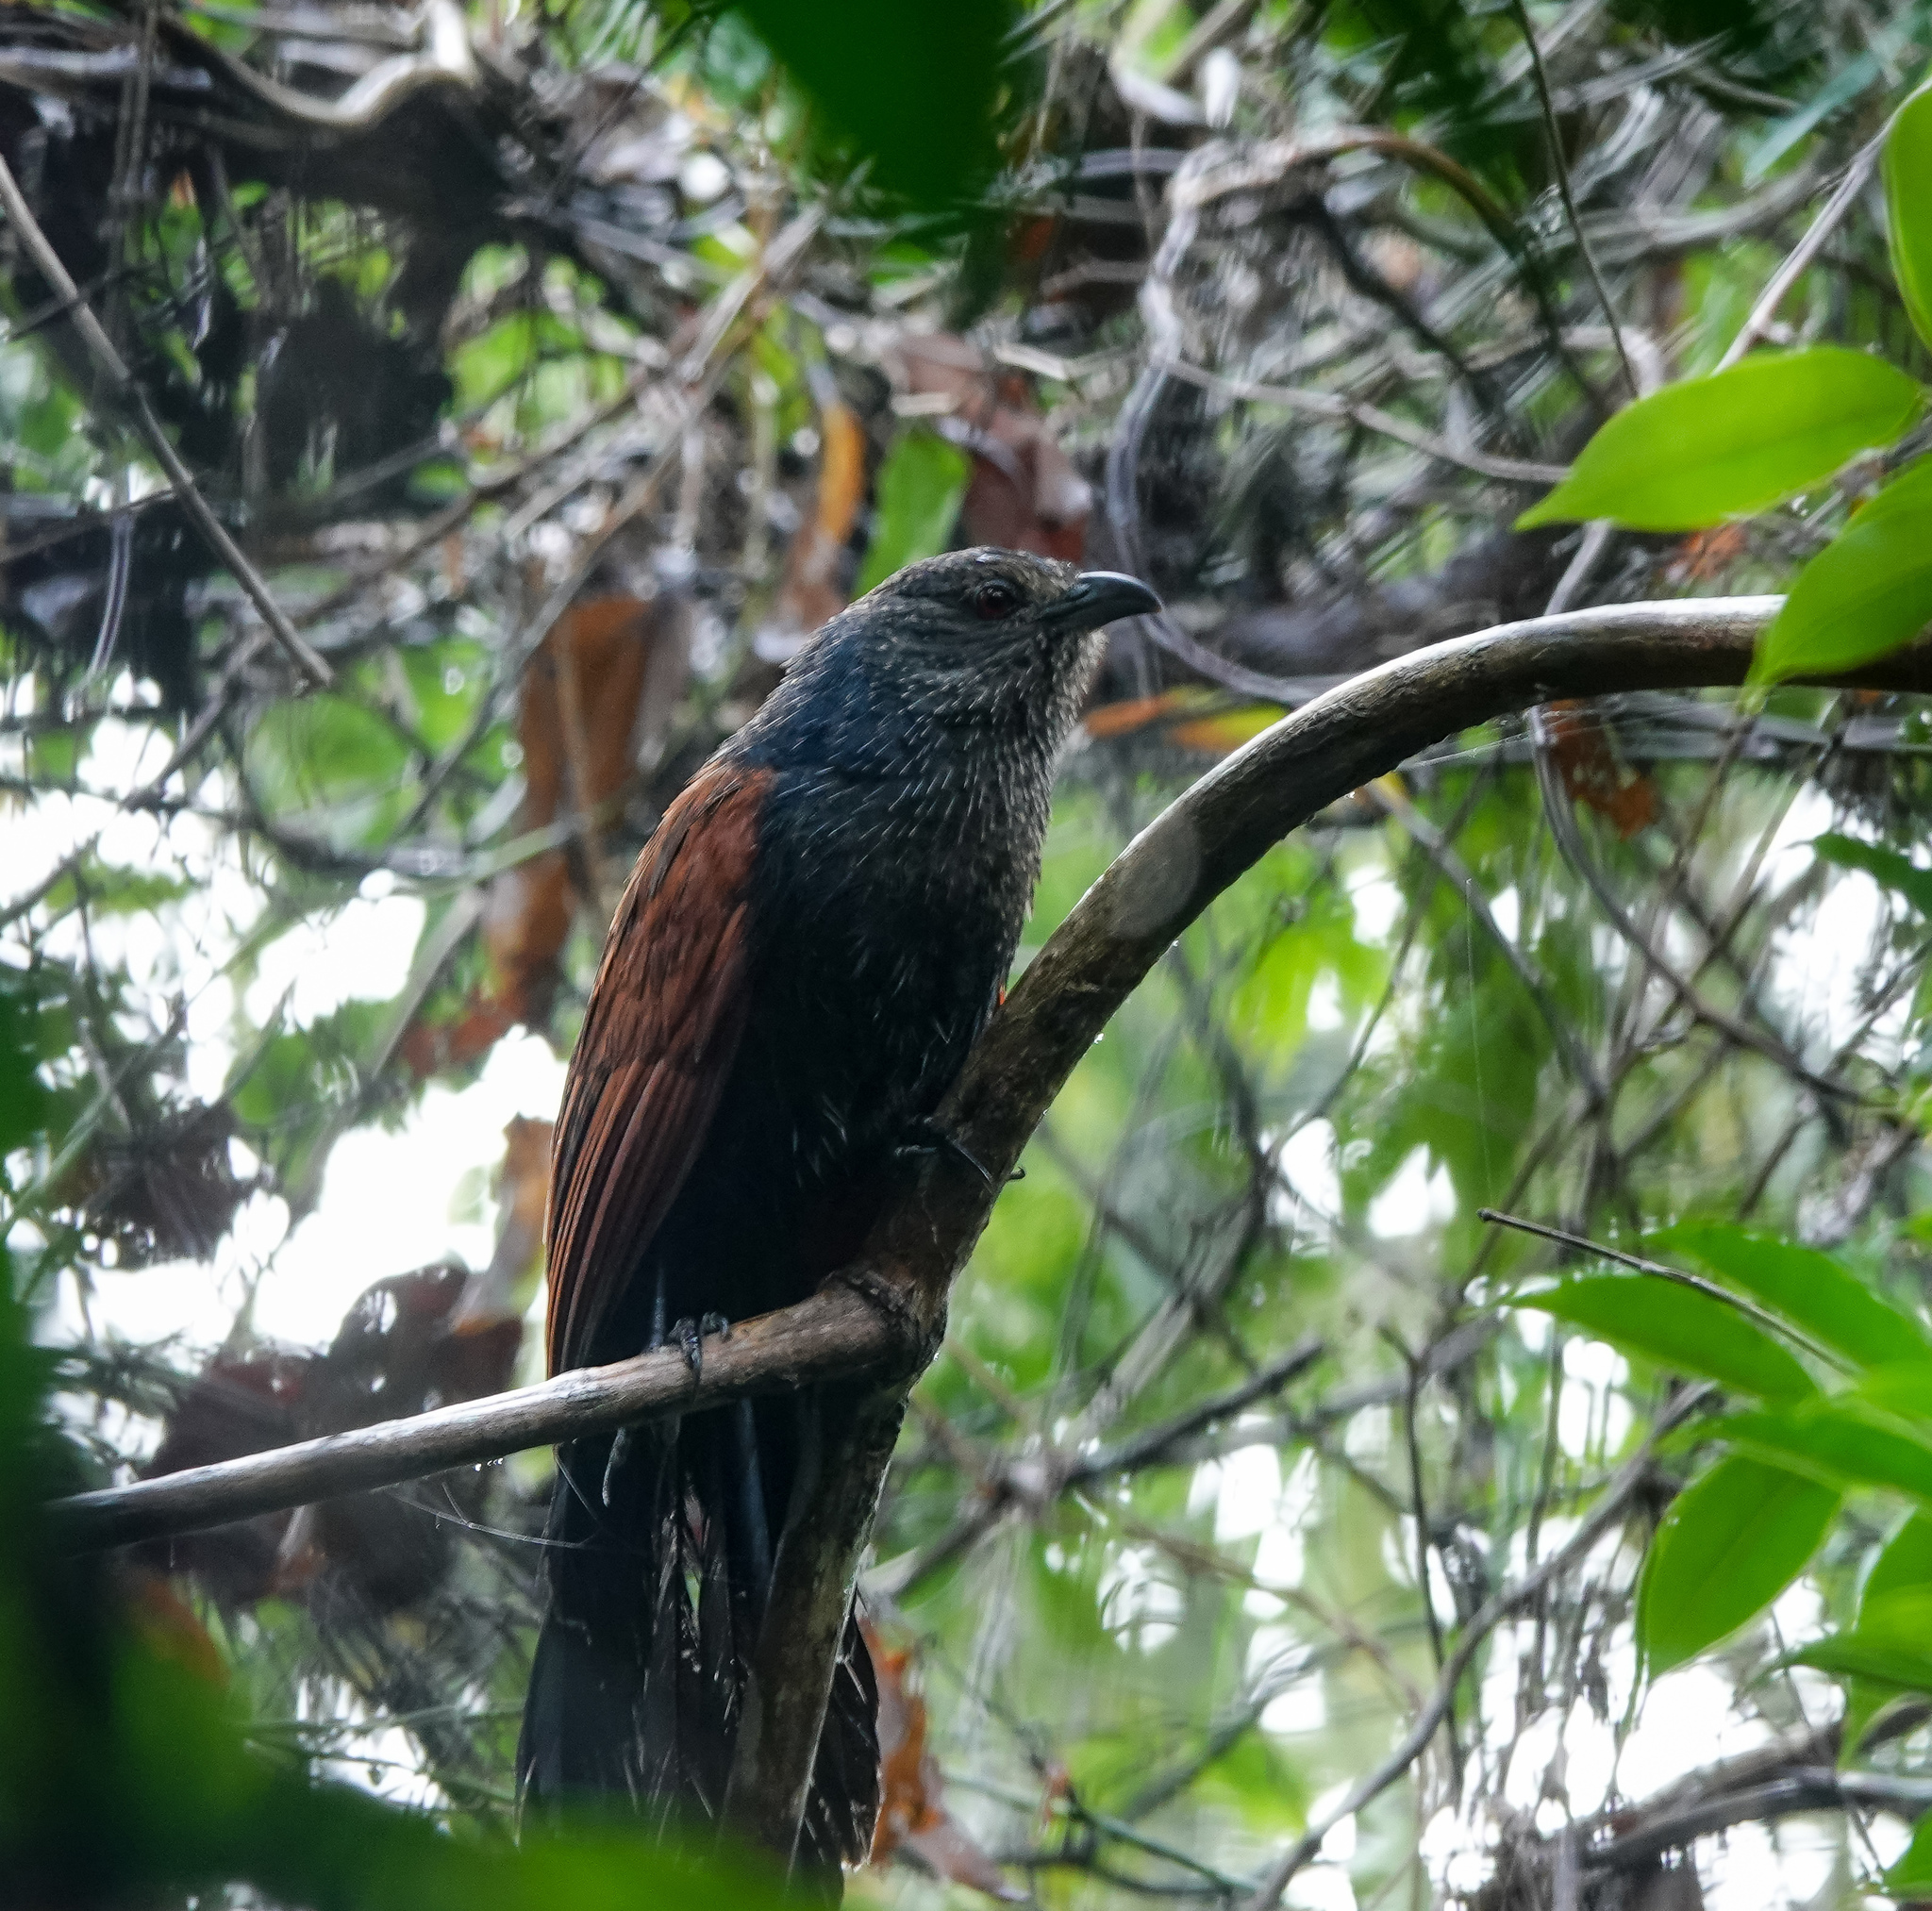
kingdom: Animalia
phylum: Chordata
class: Aves
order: Cuculiformes
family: Cuculidae
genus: Centropus
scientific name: Centropus sinensis
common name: Greater coucal
